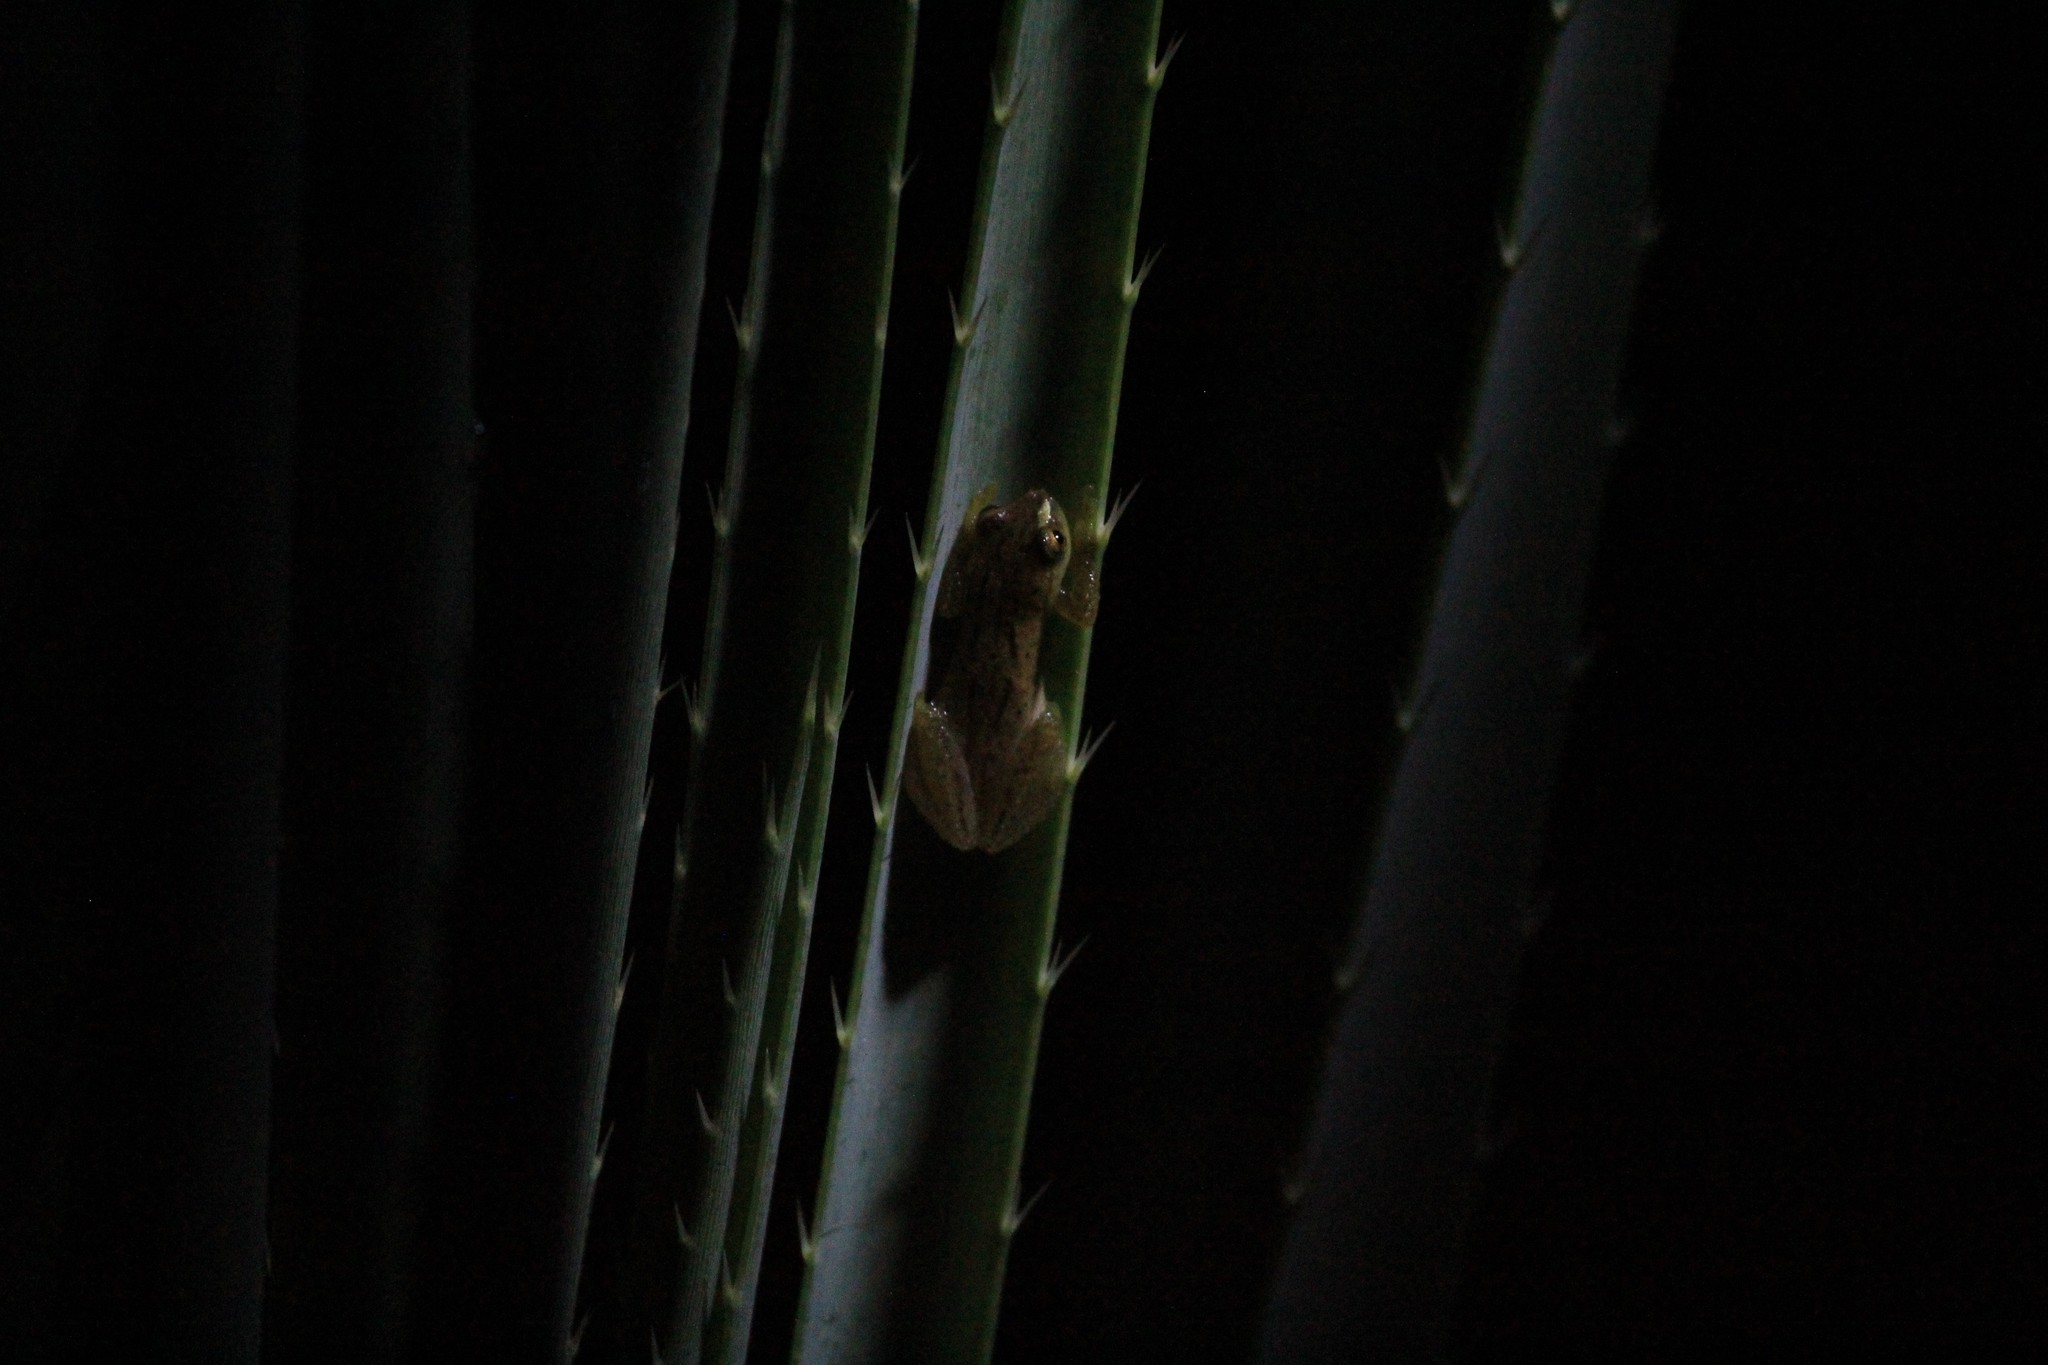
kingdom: Animalia
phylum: Chordata
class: Amphibia
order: Anura
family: Hylidae
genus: Dendropsophus
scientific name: Dendropsophus sanborni
